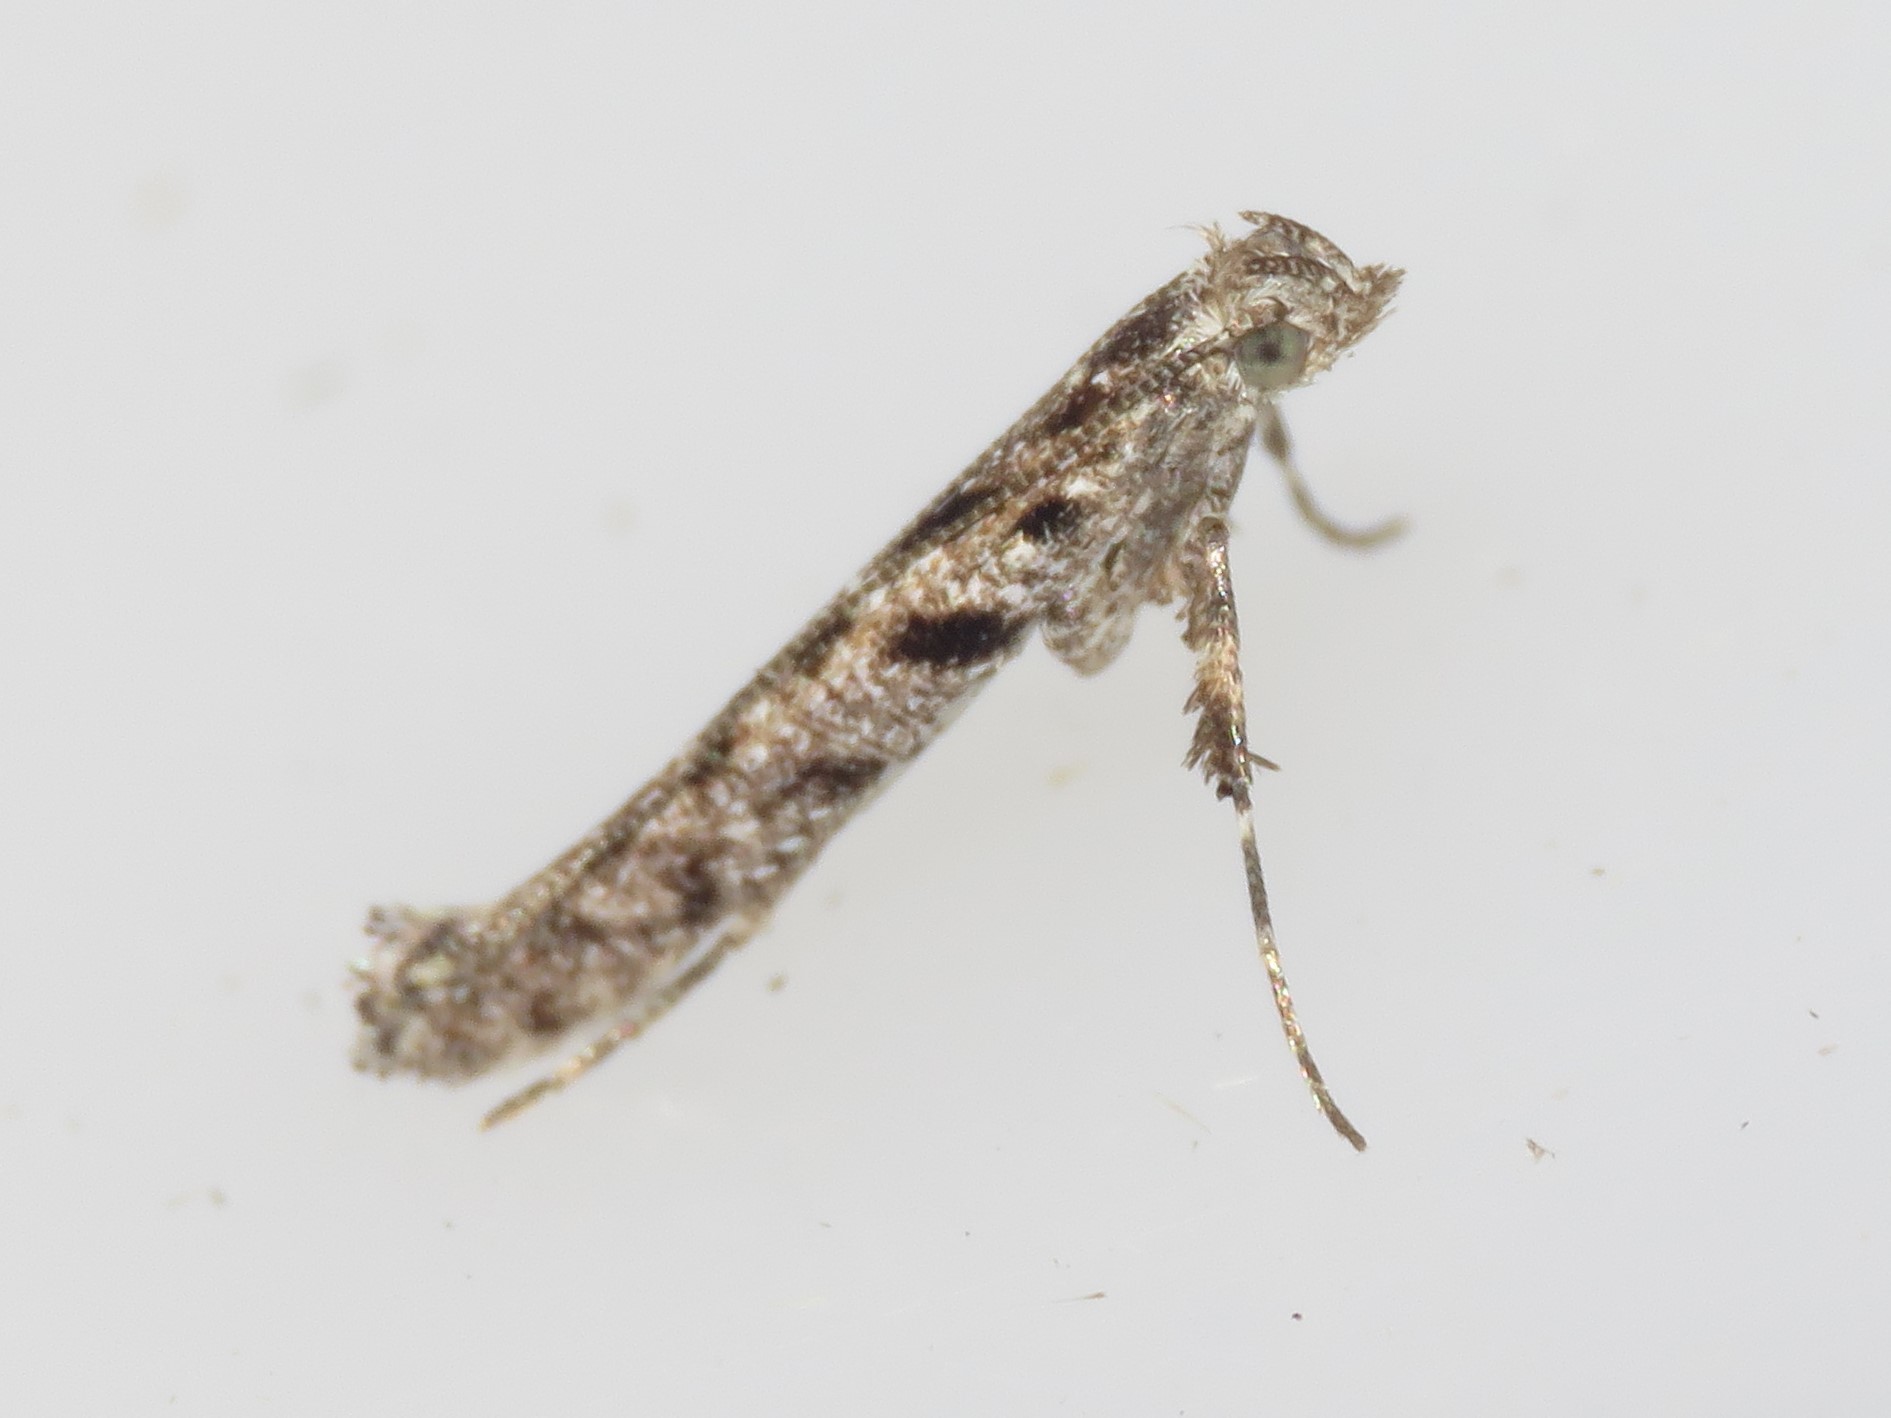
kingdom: Animalia
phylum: Arthropoda
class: Insecta
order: Lepidoptera
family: Gracillariidae
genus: Caloptilia
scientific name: Caloptilia fraxinella
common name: Ash leaf cone roller
